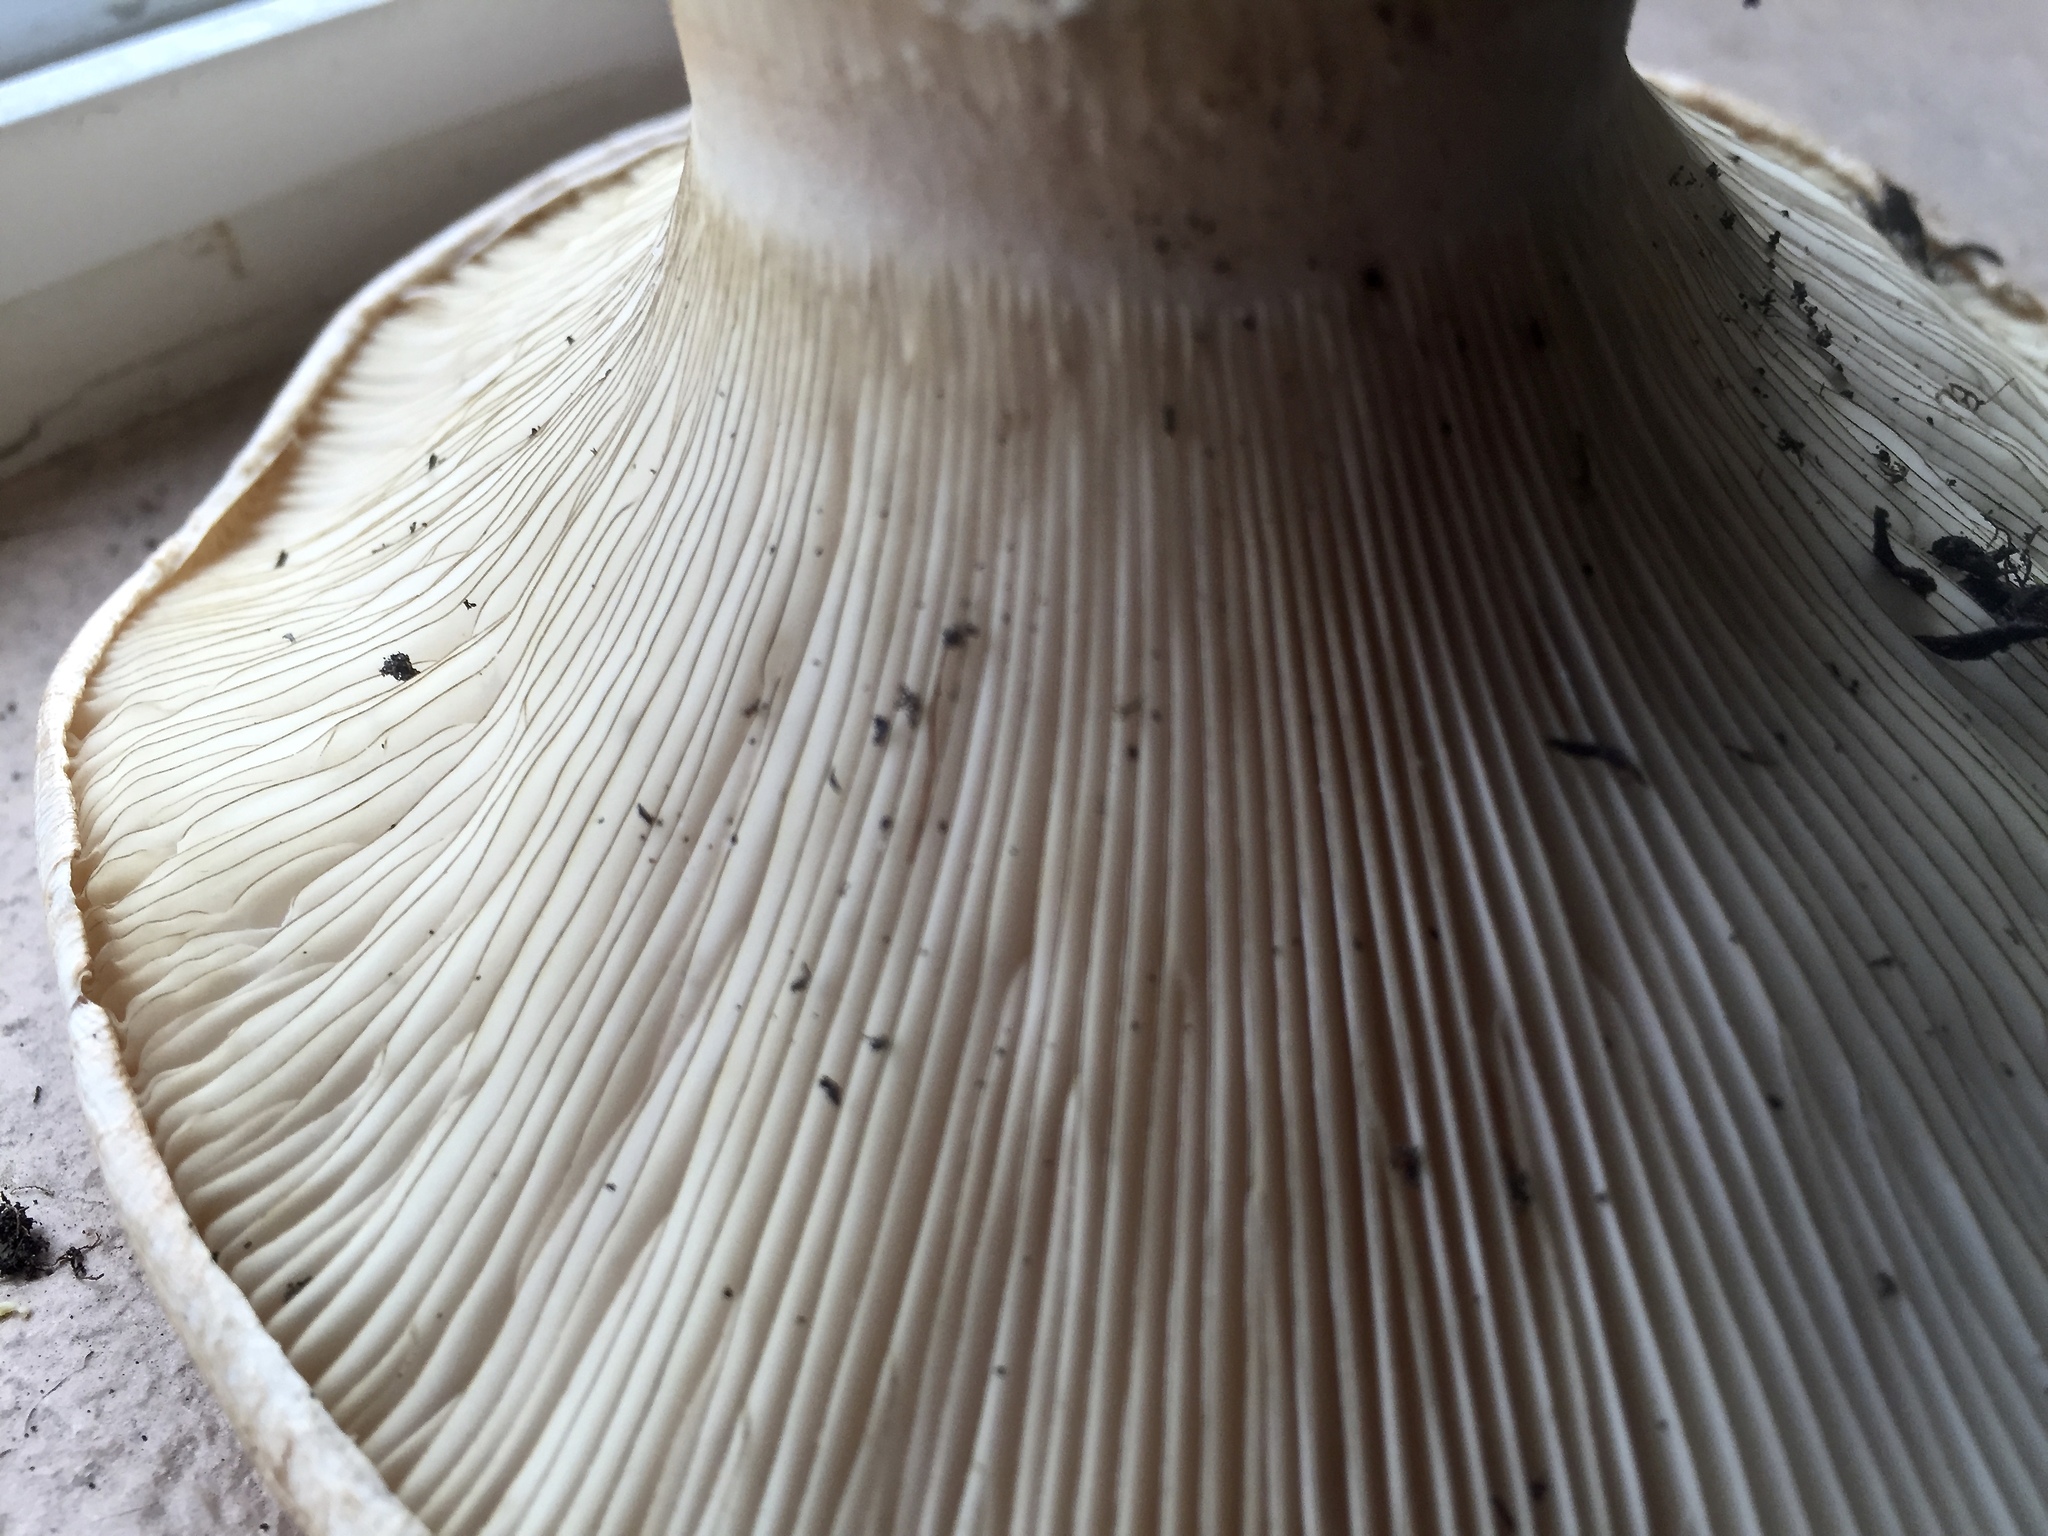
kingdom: Fungi
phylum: Basidiomycota
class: Agaricomycetes
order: Agaricales
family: Biannulariaceae
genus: Catathelasma
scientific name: Catathelasma ventricosum
